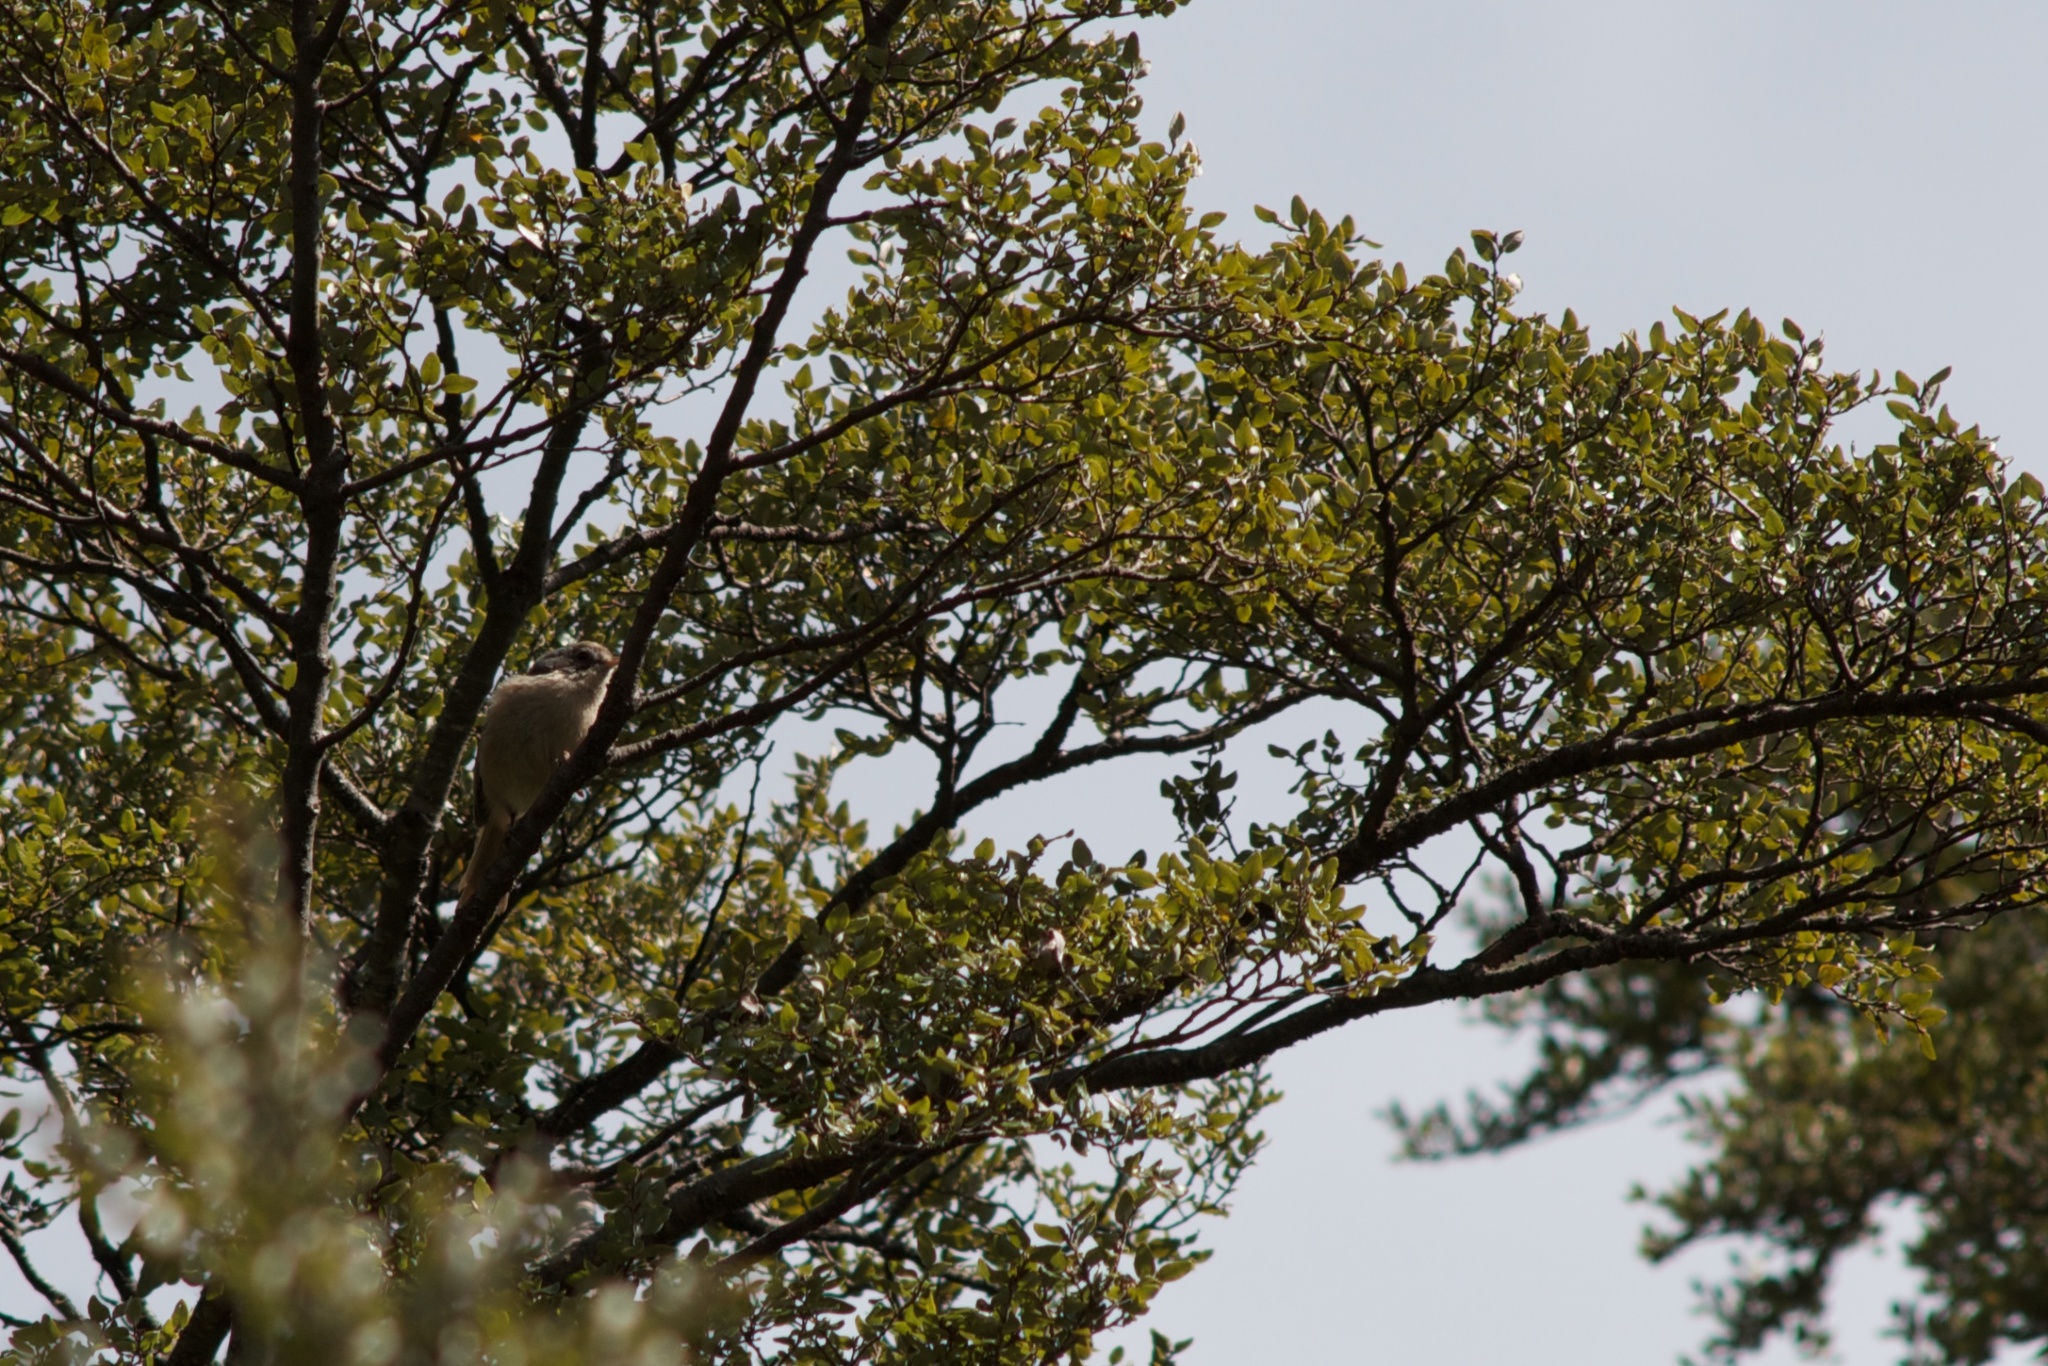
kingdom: Animalia
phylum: Chordata
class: Aves
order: Passeriformes
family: Acanthizidae
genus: Finschia
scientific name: Finschia novaeseelandiae
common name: Pipipi
